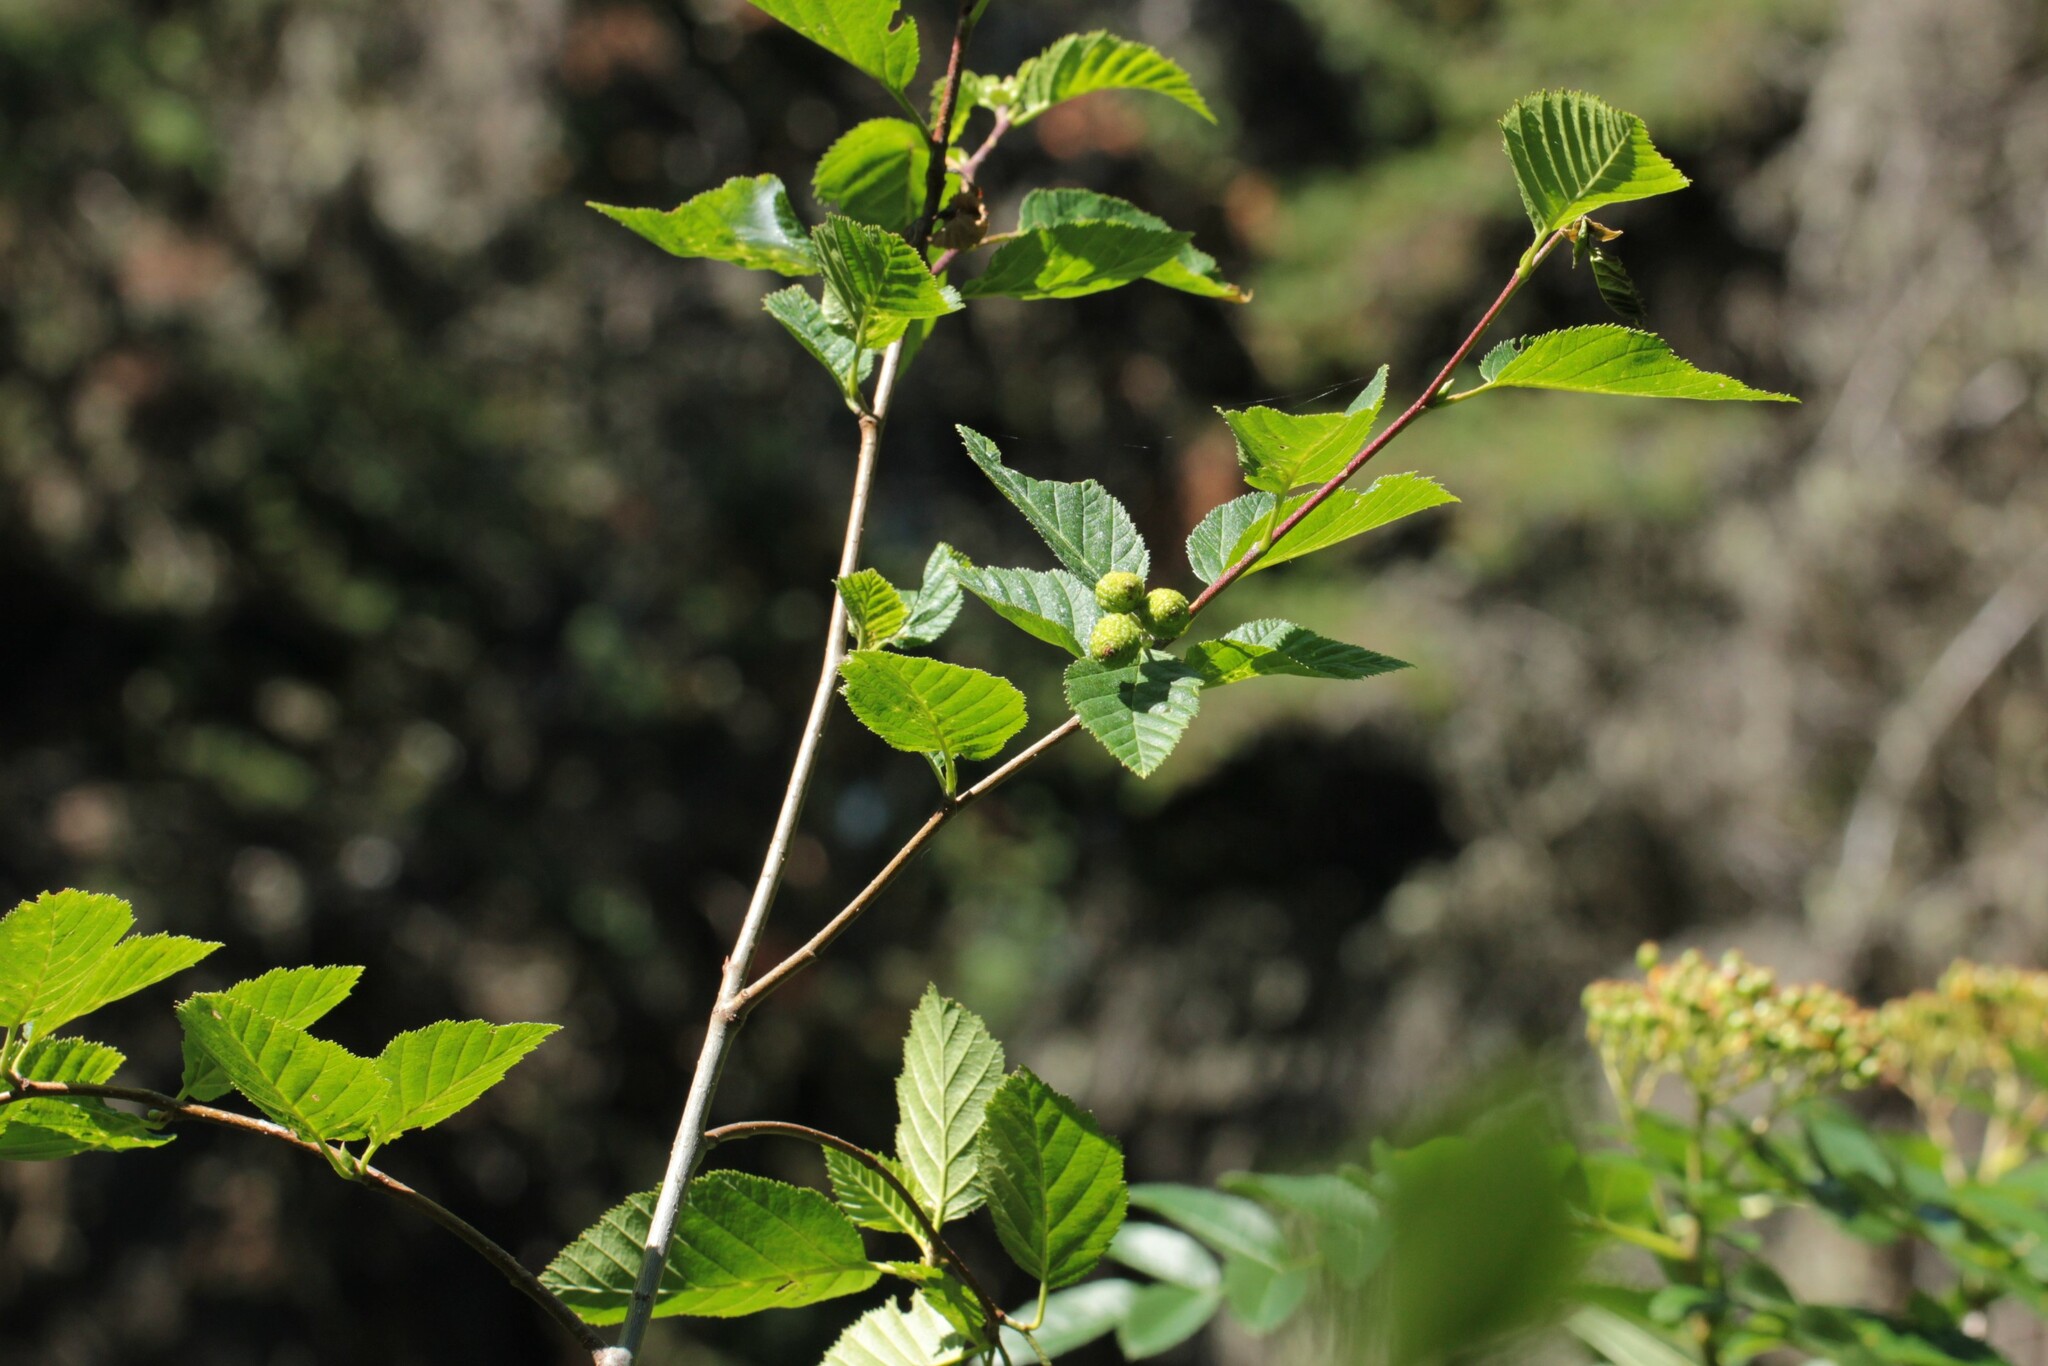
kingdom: Plantae
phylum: Tracheophyta
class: Magnoliopsida
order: Fagales
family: Betulaceae
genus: Alnus
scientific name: Alnus alnobetula
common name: Green alder
